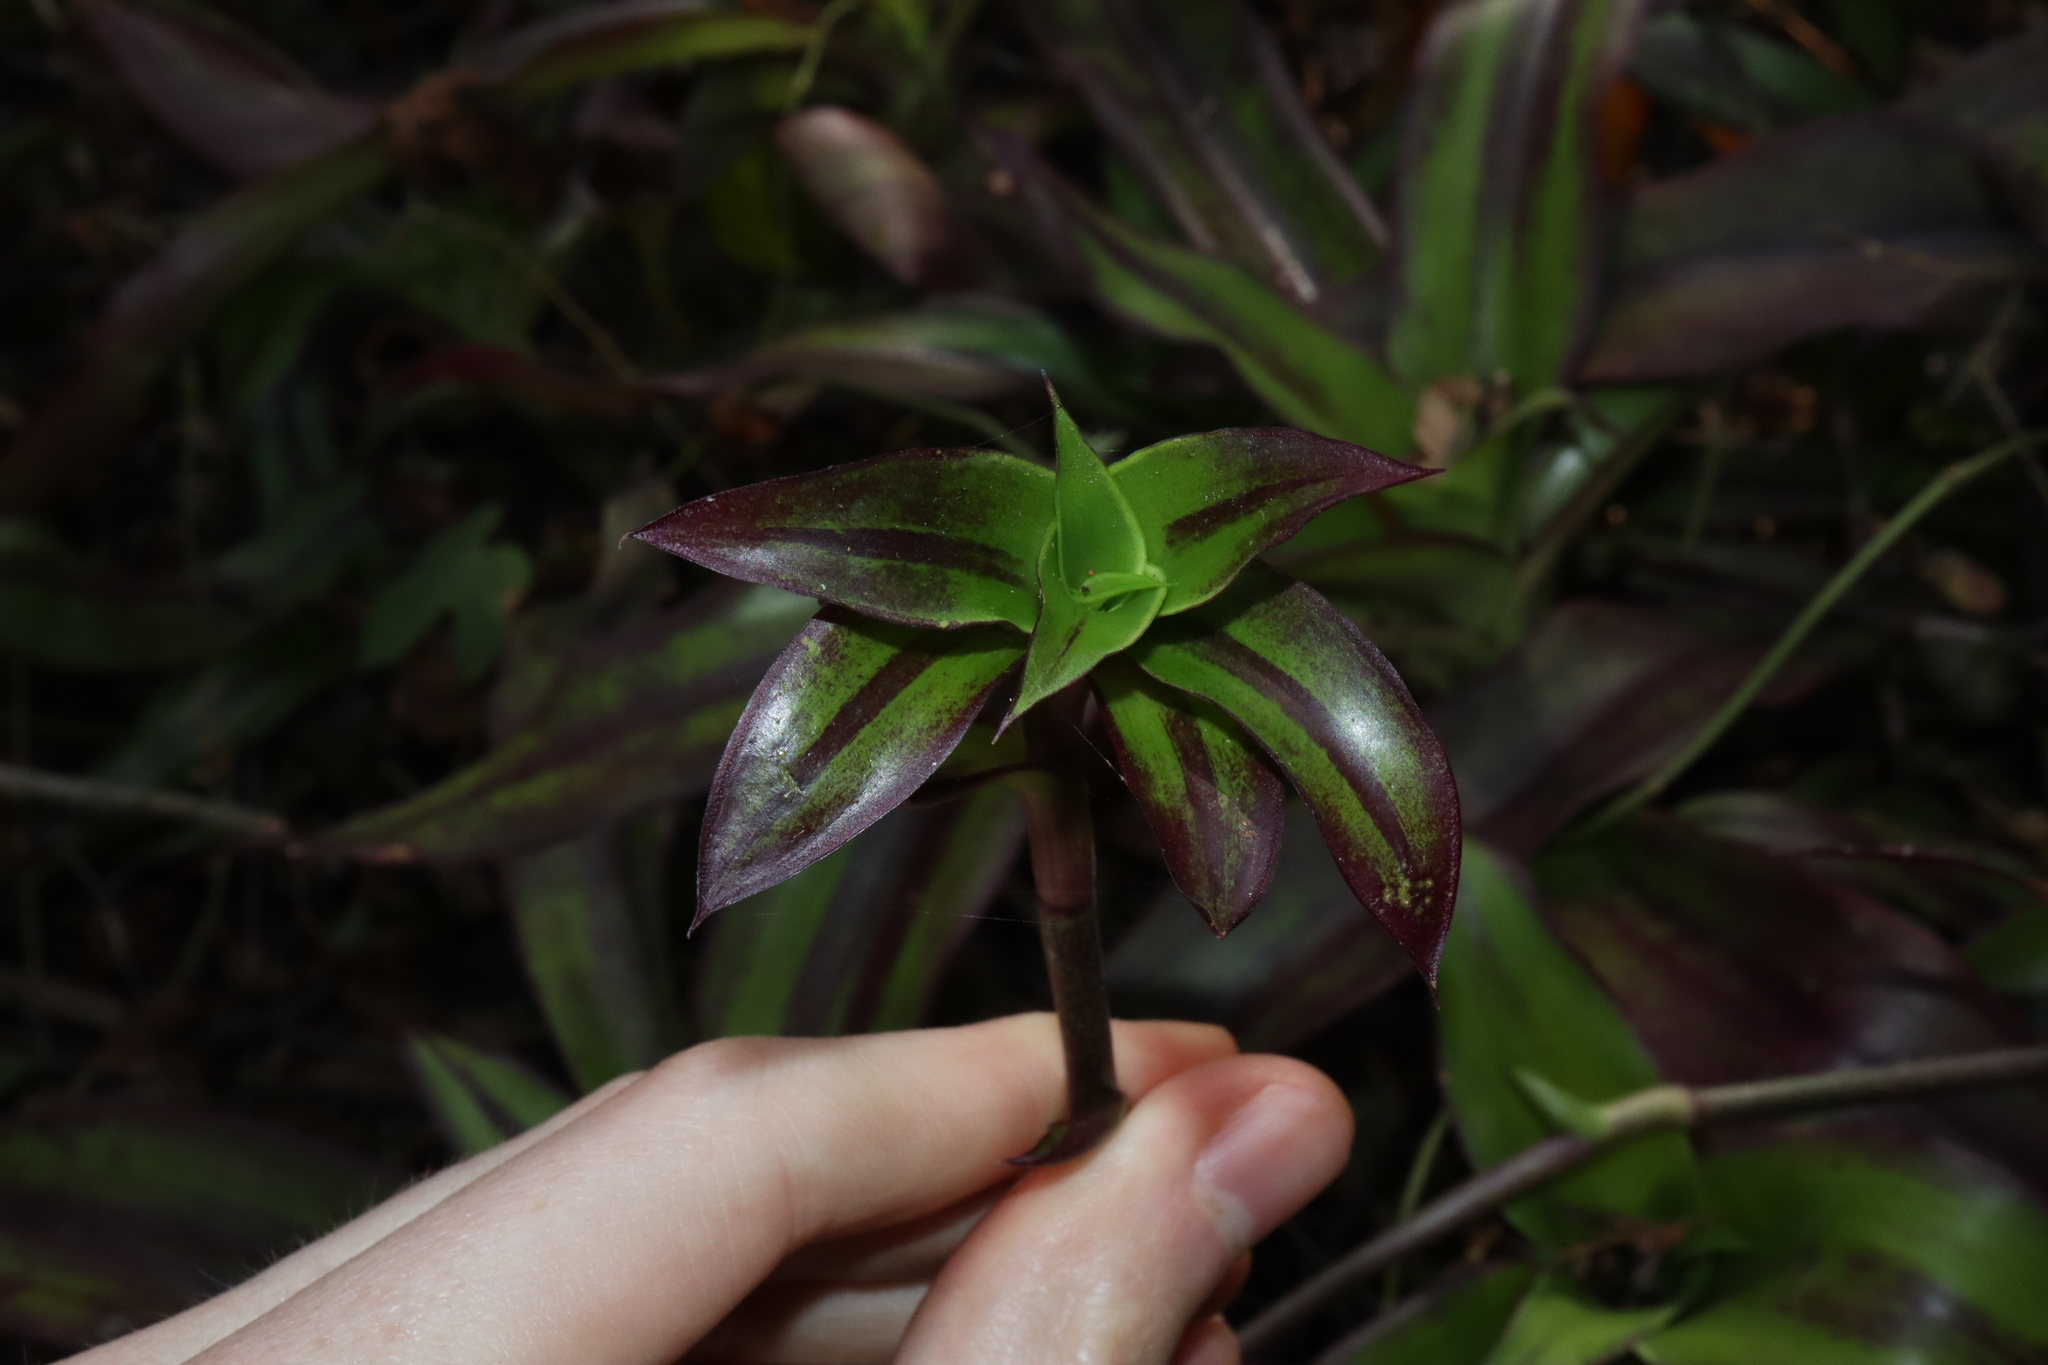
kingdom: Plantae
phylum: Tracheophyta
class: Liliopsida
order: Commelinales
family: Commelinaceae
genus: Callisia
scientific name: Callisia fragrans
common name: Basketplant
